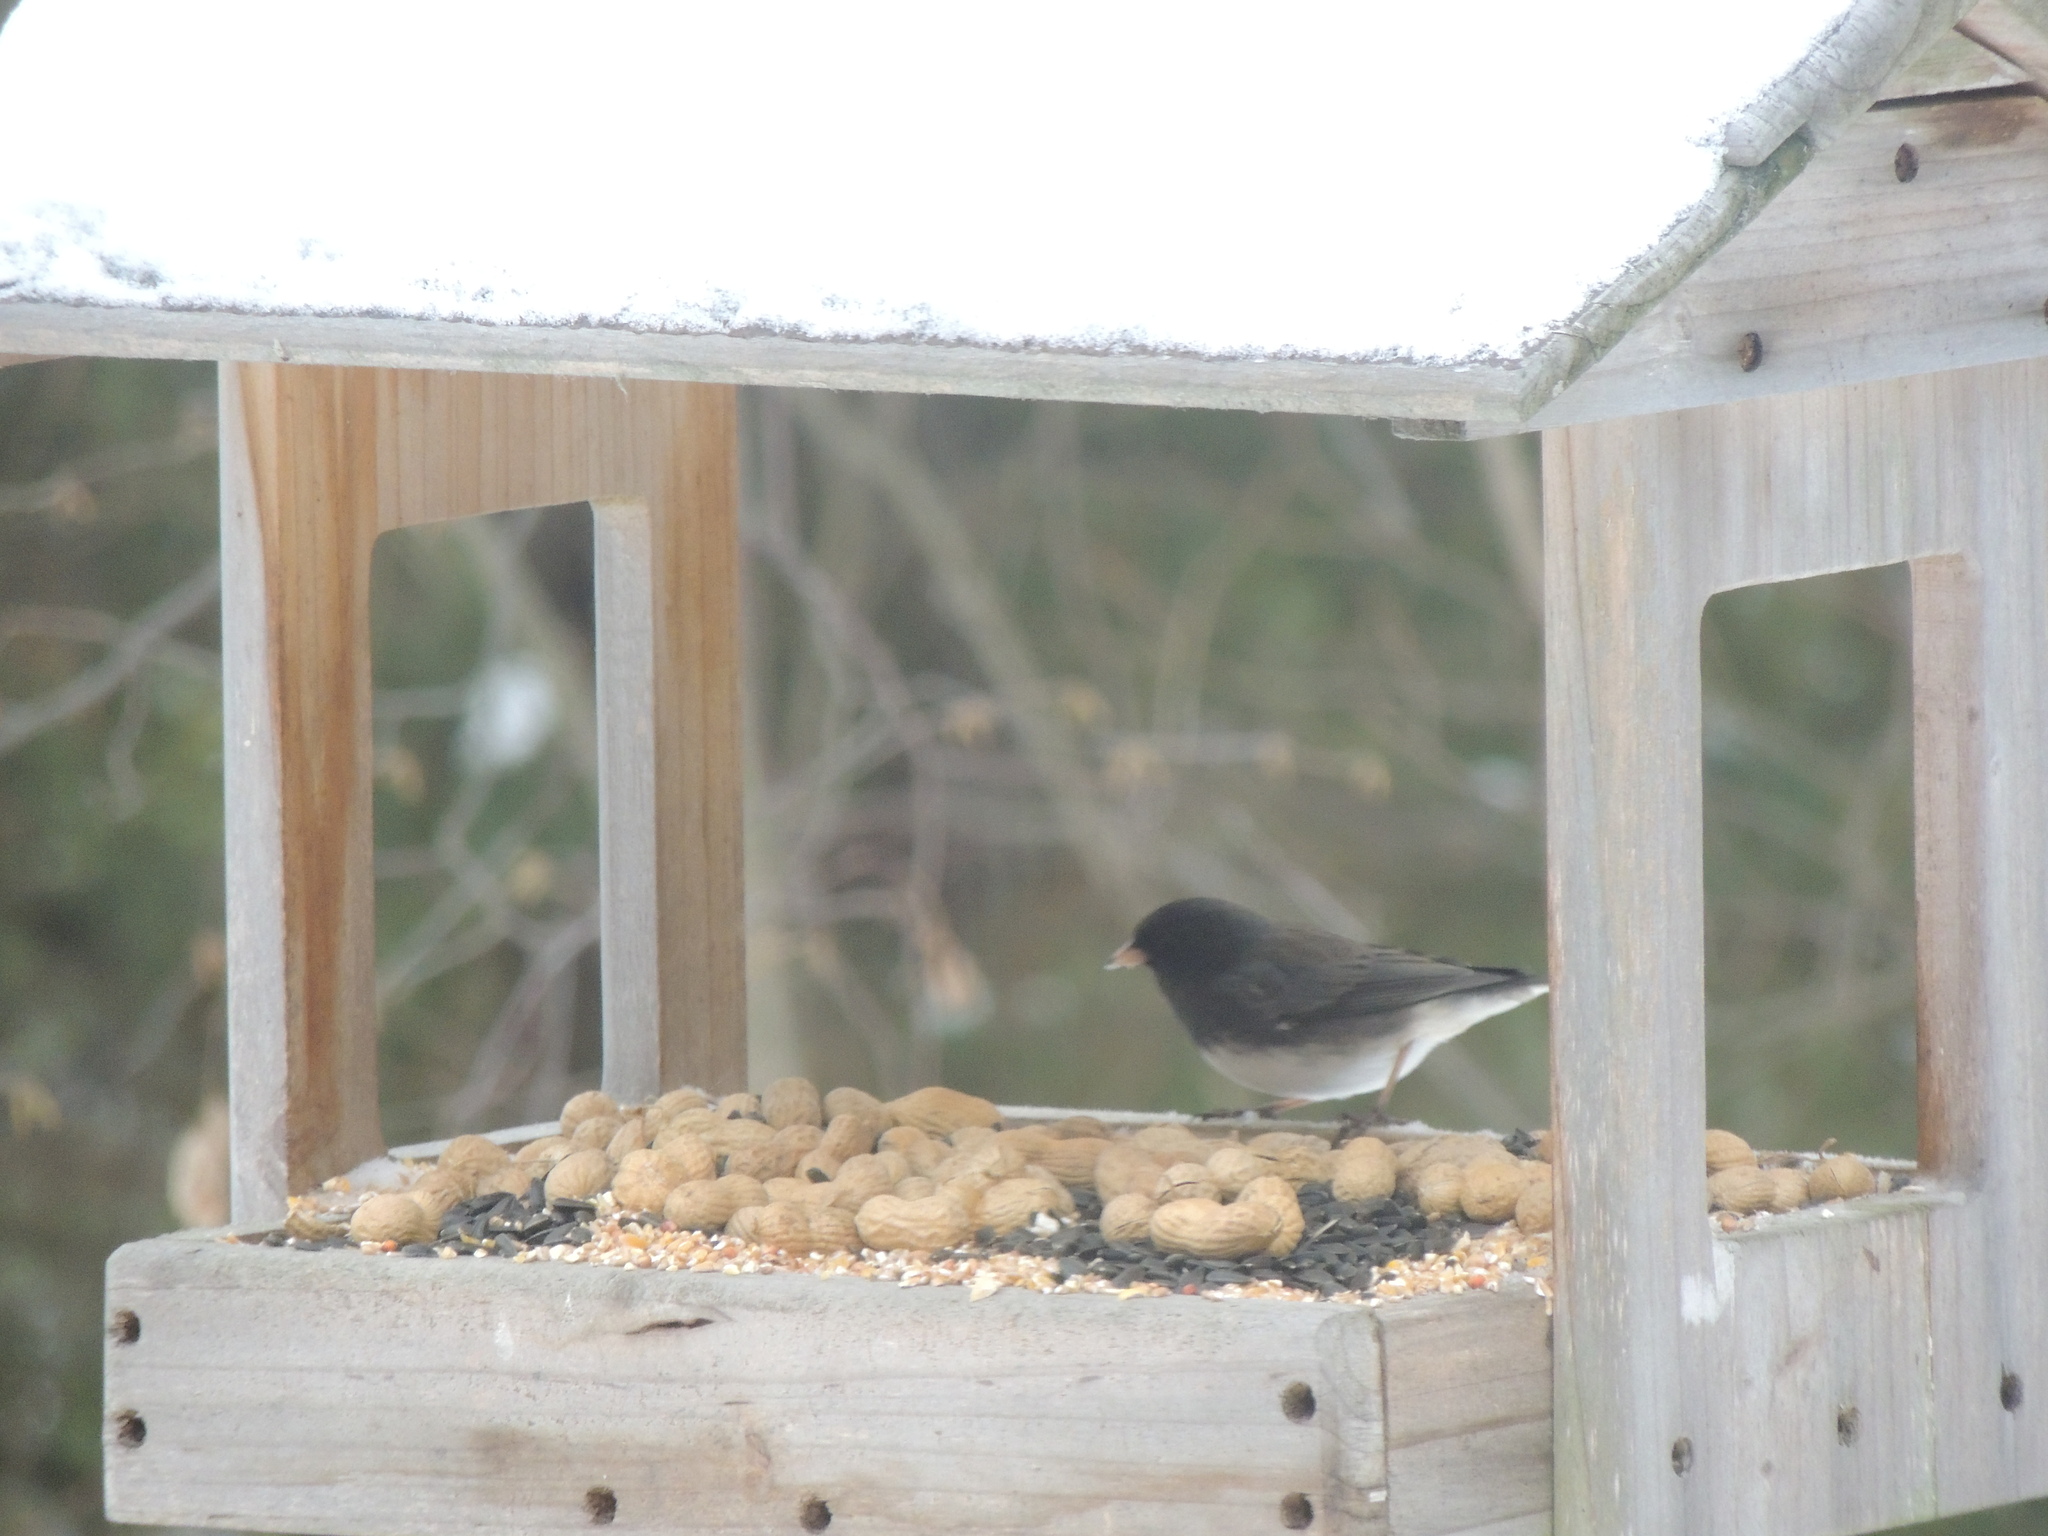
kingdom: Animalia
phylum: Chordata
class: Aves
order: Passeriformes
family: Passerellidae
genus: Junco
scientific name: Junco hyemalis
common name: Dark-eyed junco
